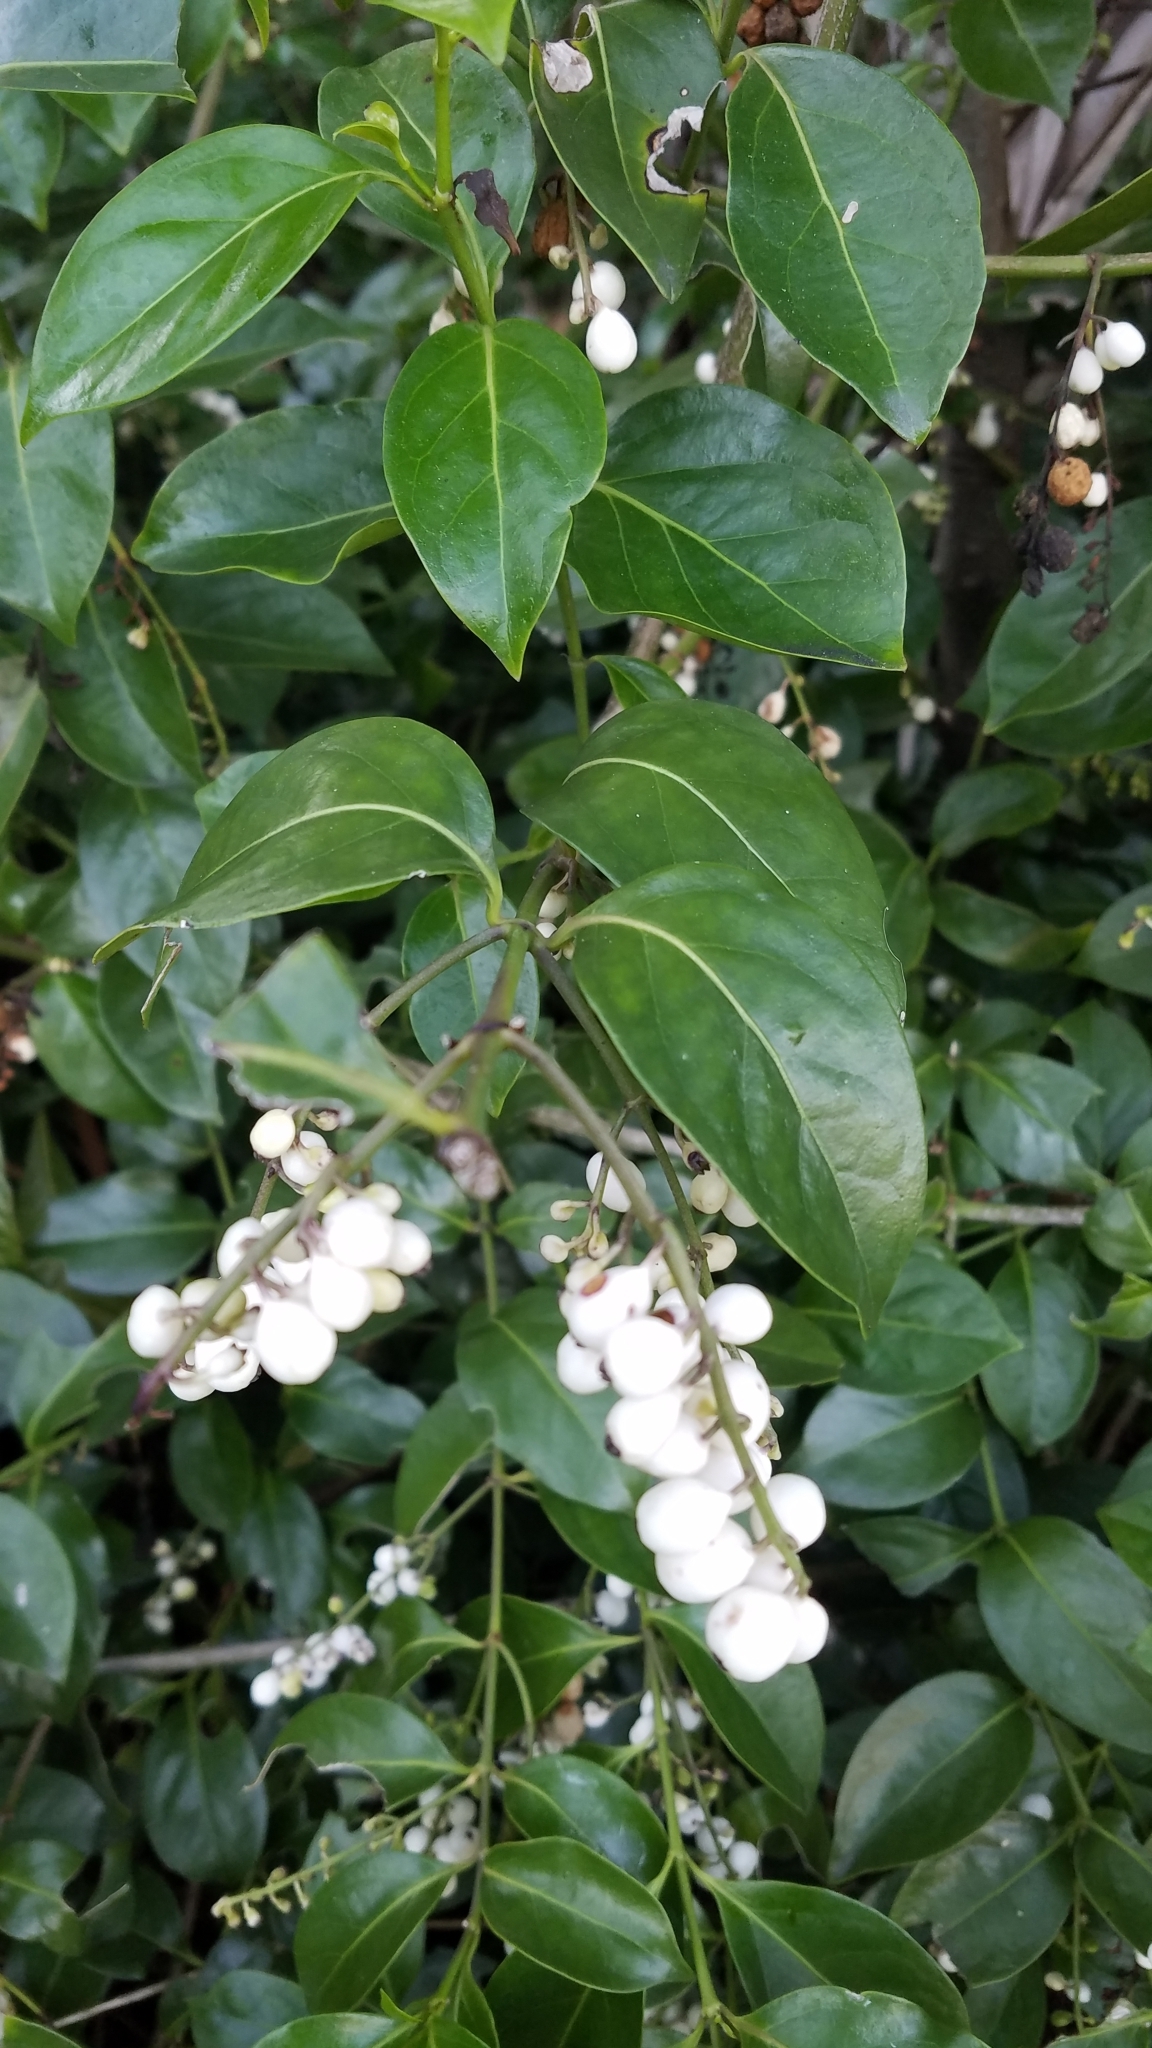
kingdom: Plantae
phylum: Tracheophyta
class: Magnoliopsida
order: Gentianales
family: Rubiaceae
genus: Chiococca
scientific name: Chiococca alba
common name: Snowberry
